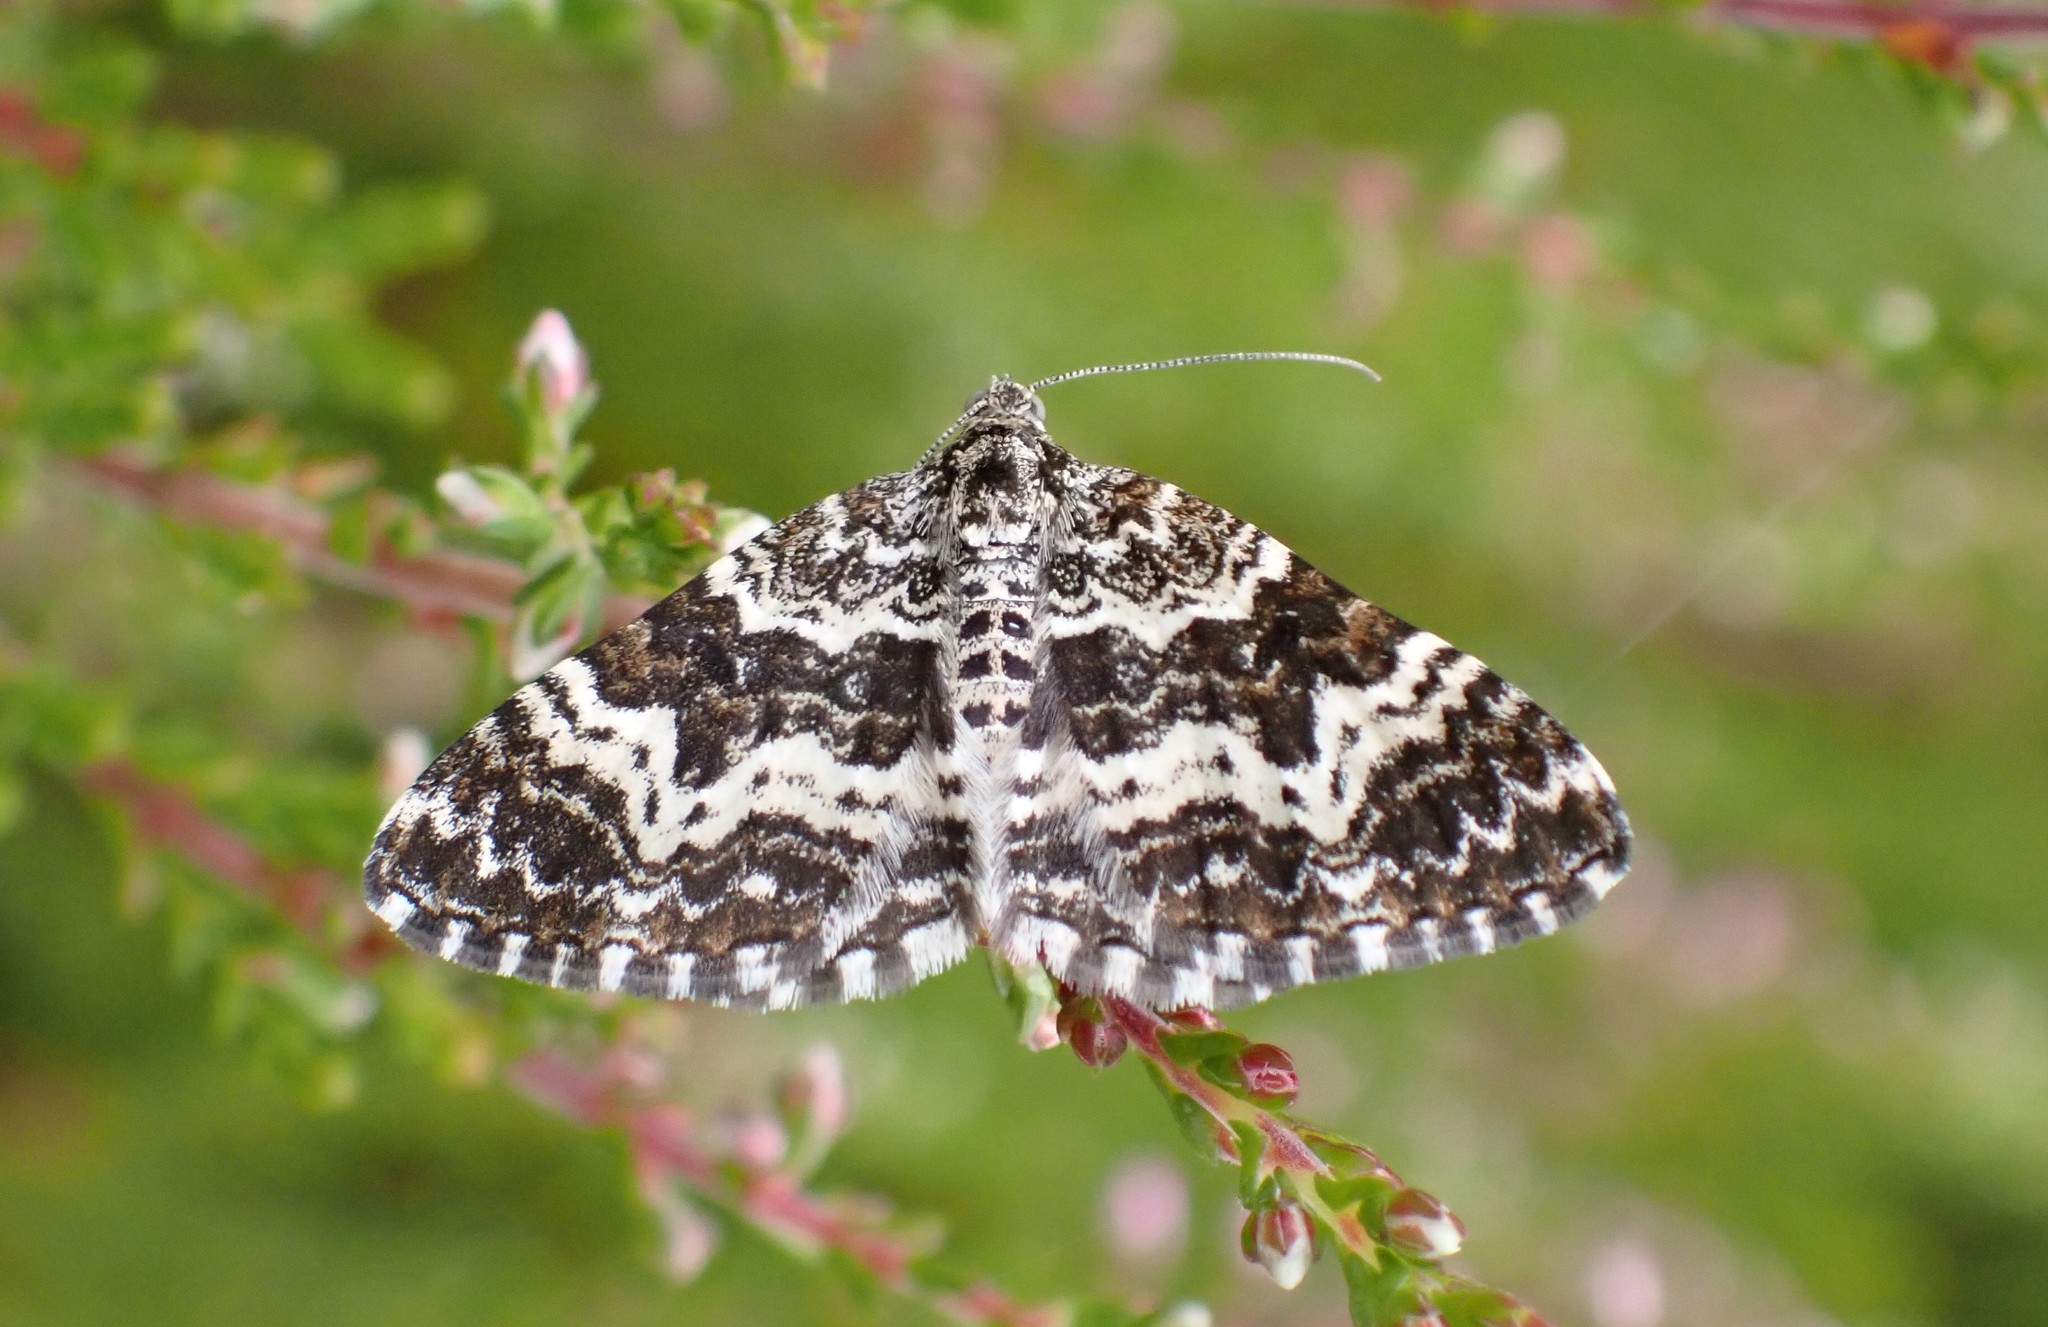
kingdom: Animalia
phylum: Arthropoda
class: Insecta
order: Lepidoptera
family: Geometridae
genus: Epirrhoe
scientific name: Epirrhoe tristata
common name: Small argent & sable
